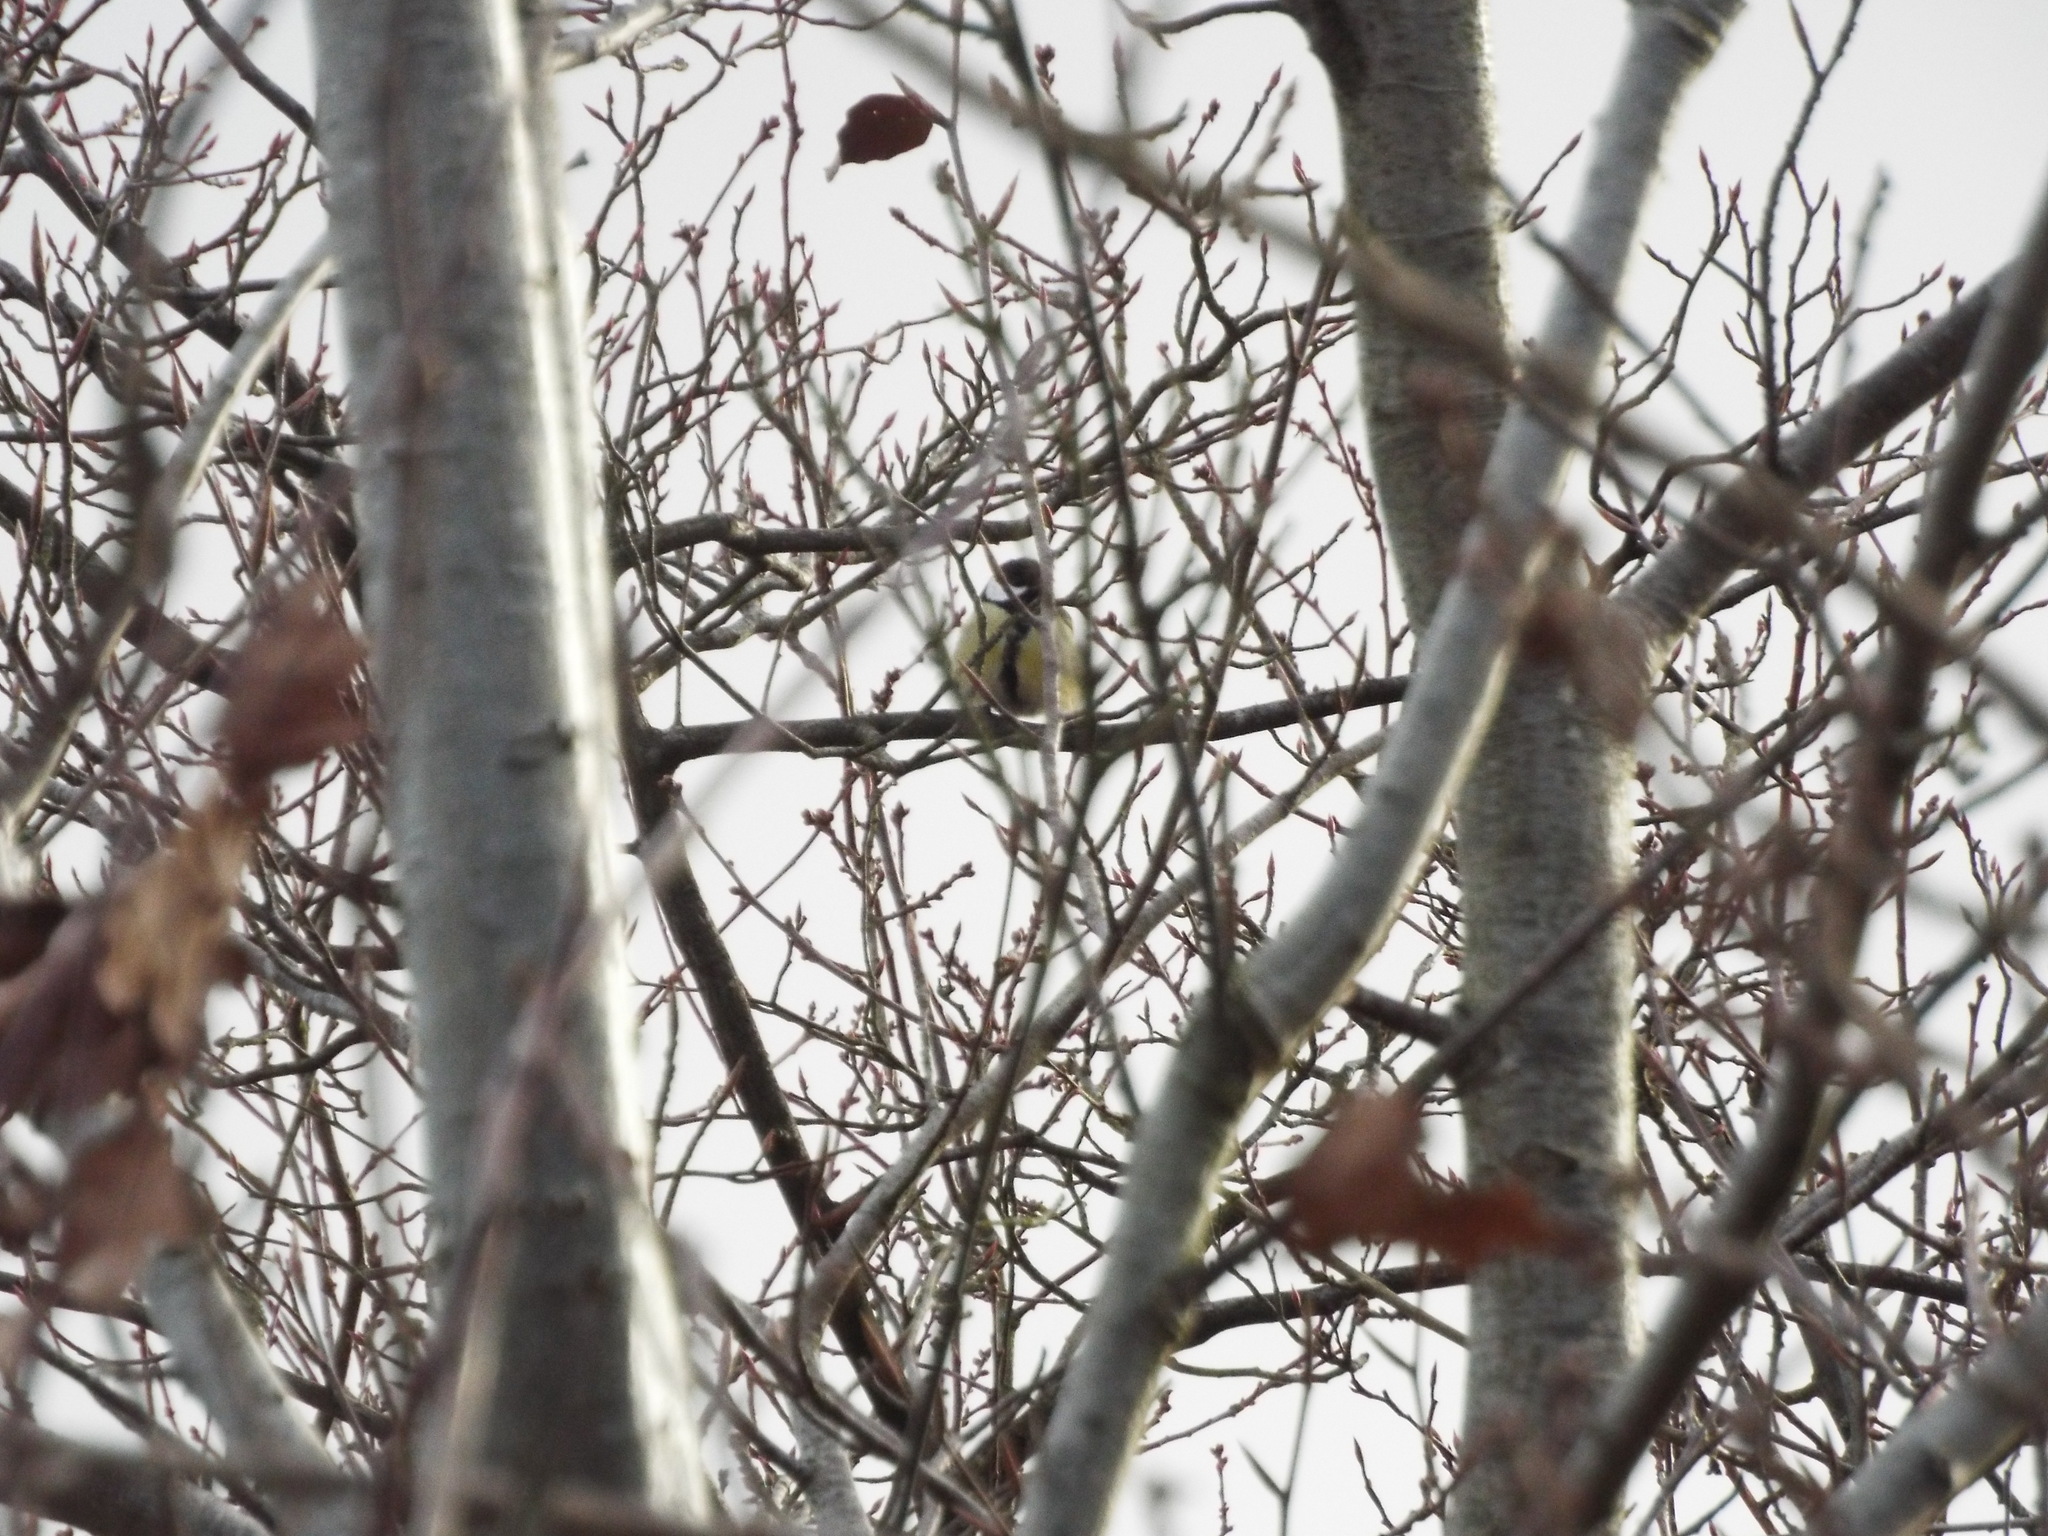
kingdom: Animalia
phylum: Chordata
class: Aves
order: Passeriformes
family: Paridae
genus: Parus
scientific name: Parus major
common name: Great tit
